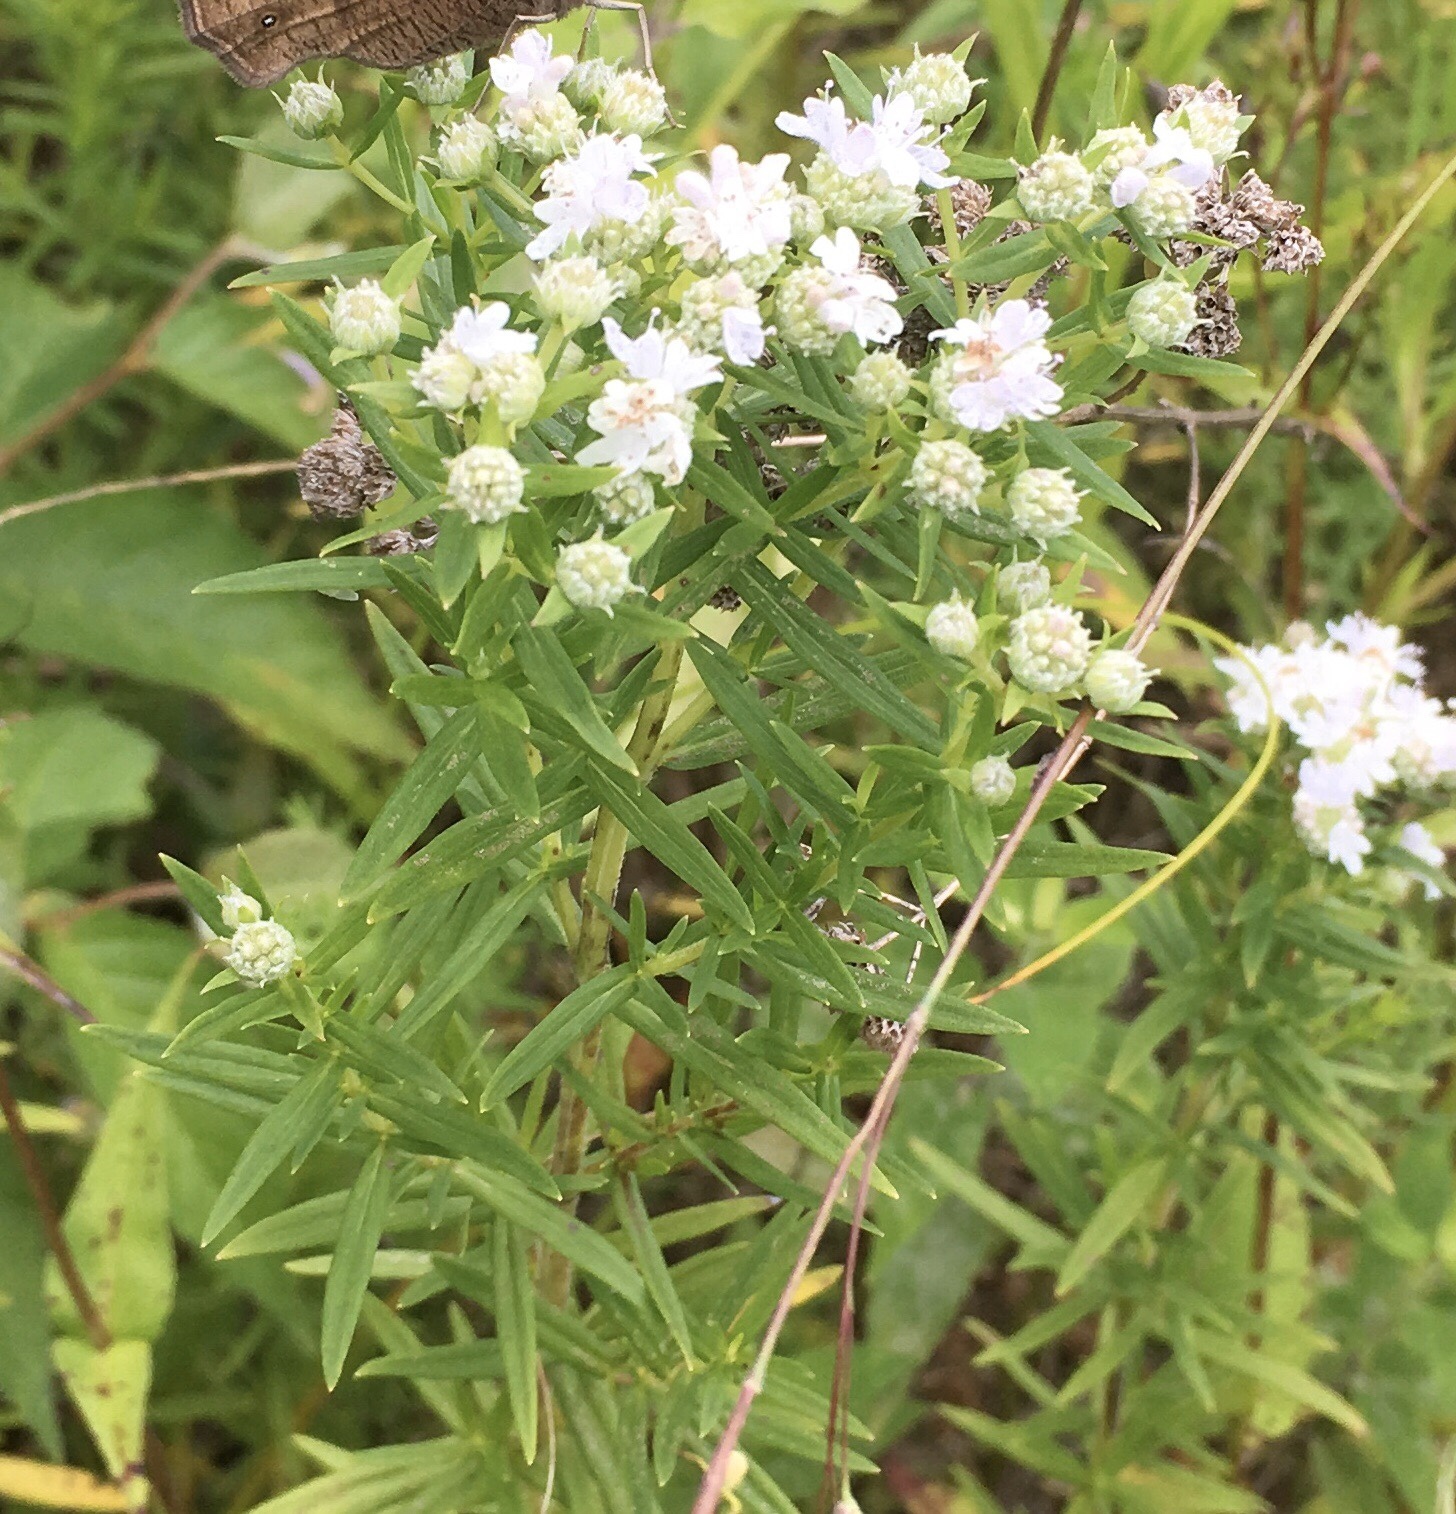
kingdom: Plantae
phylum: Tracheophyta
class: Magnoliopsida
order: Lamiales
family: Lamiaceae
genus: Pycnanthemum
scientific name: Pycnanthemum virginianum
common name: Virginia mountain-mint
